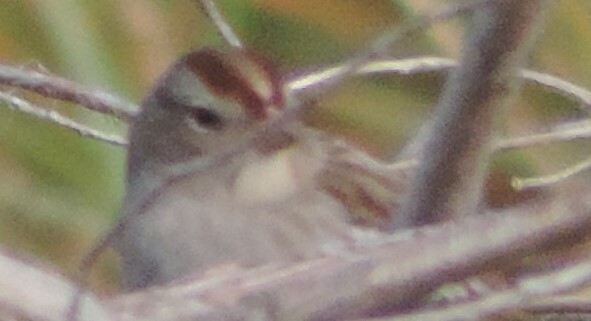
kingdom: Animalia
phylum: Chordata
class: Aves
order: Passeriformes
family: Passerellidae
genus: Zonotrichia
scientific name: Zonotrichia leucophrys
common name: White-crowned sparrow
